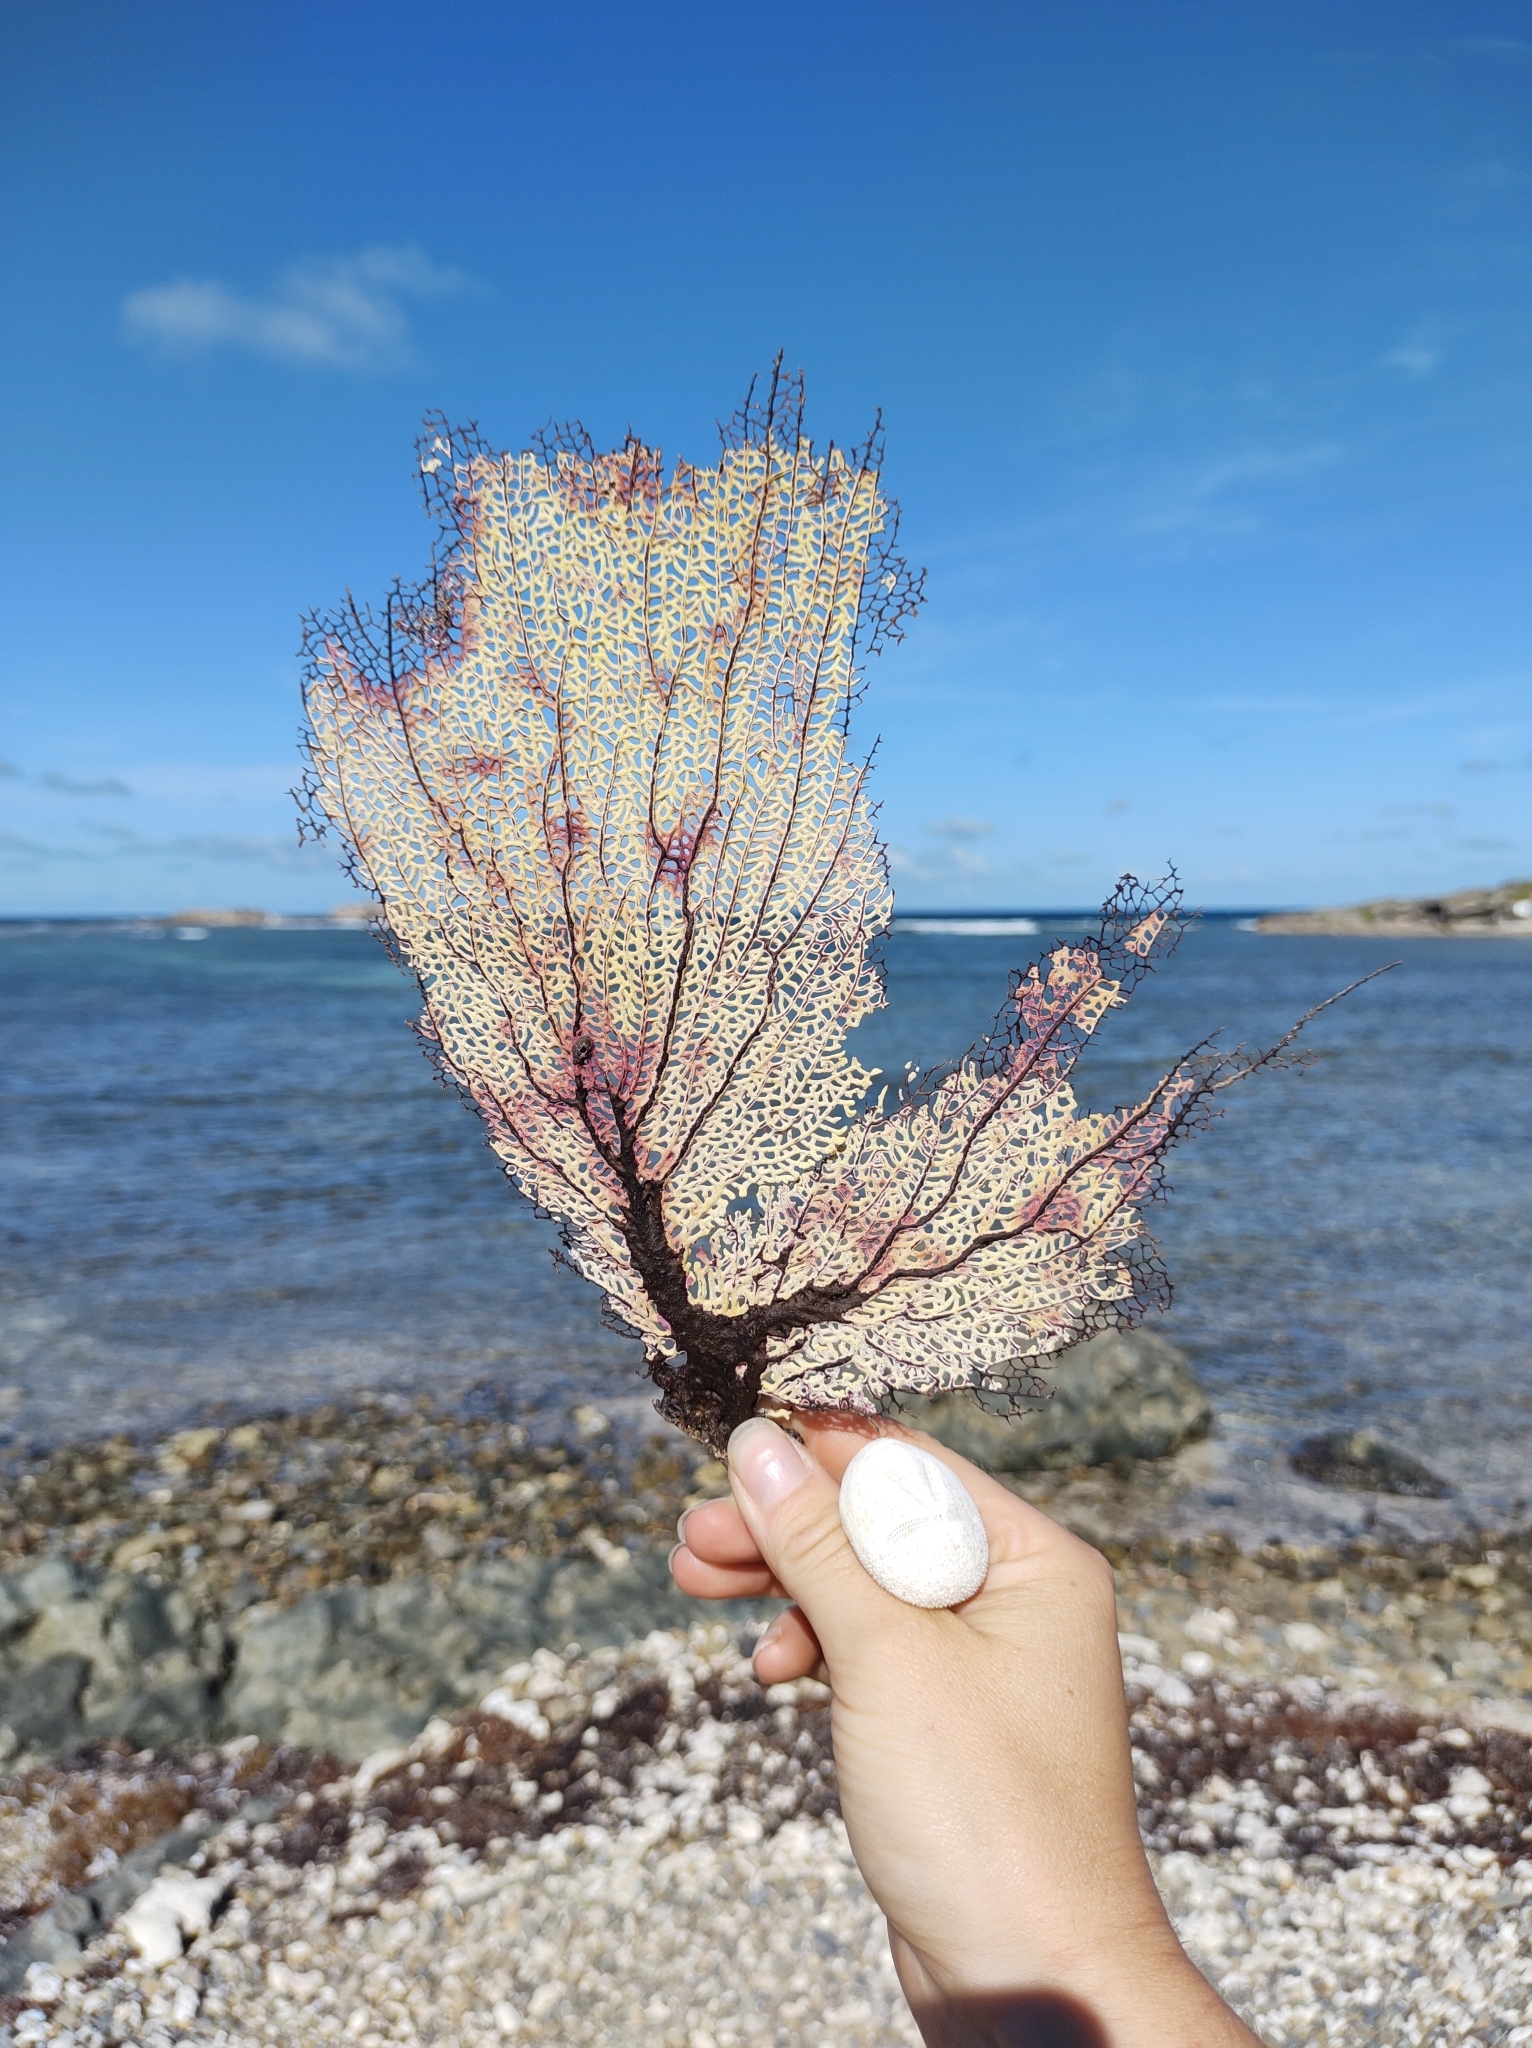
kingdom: Animalia
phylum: Cnidaria
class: Anthozoa
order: Malacalcyonacea
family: Gorgoniidae
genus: Gorgonia
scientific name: Gorgonia ventalina
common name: Common sea fan
